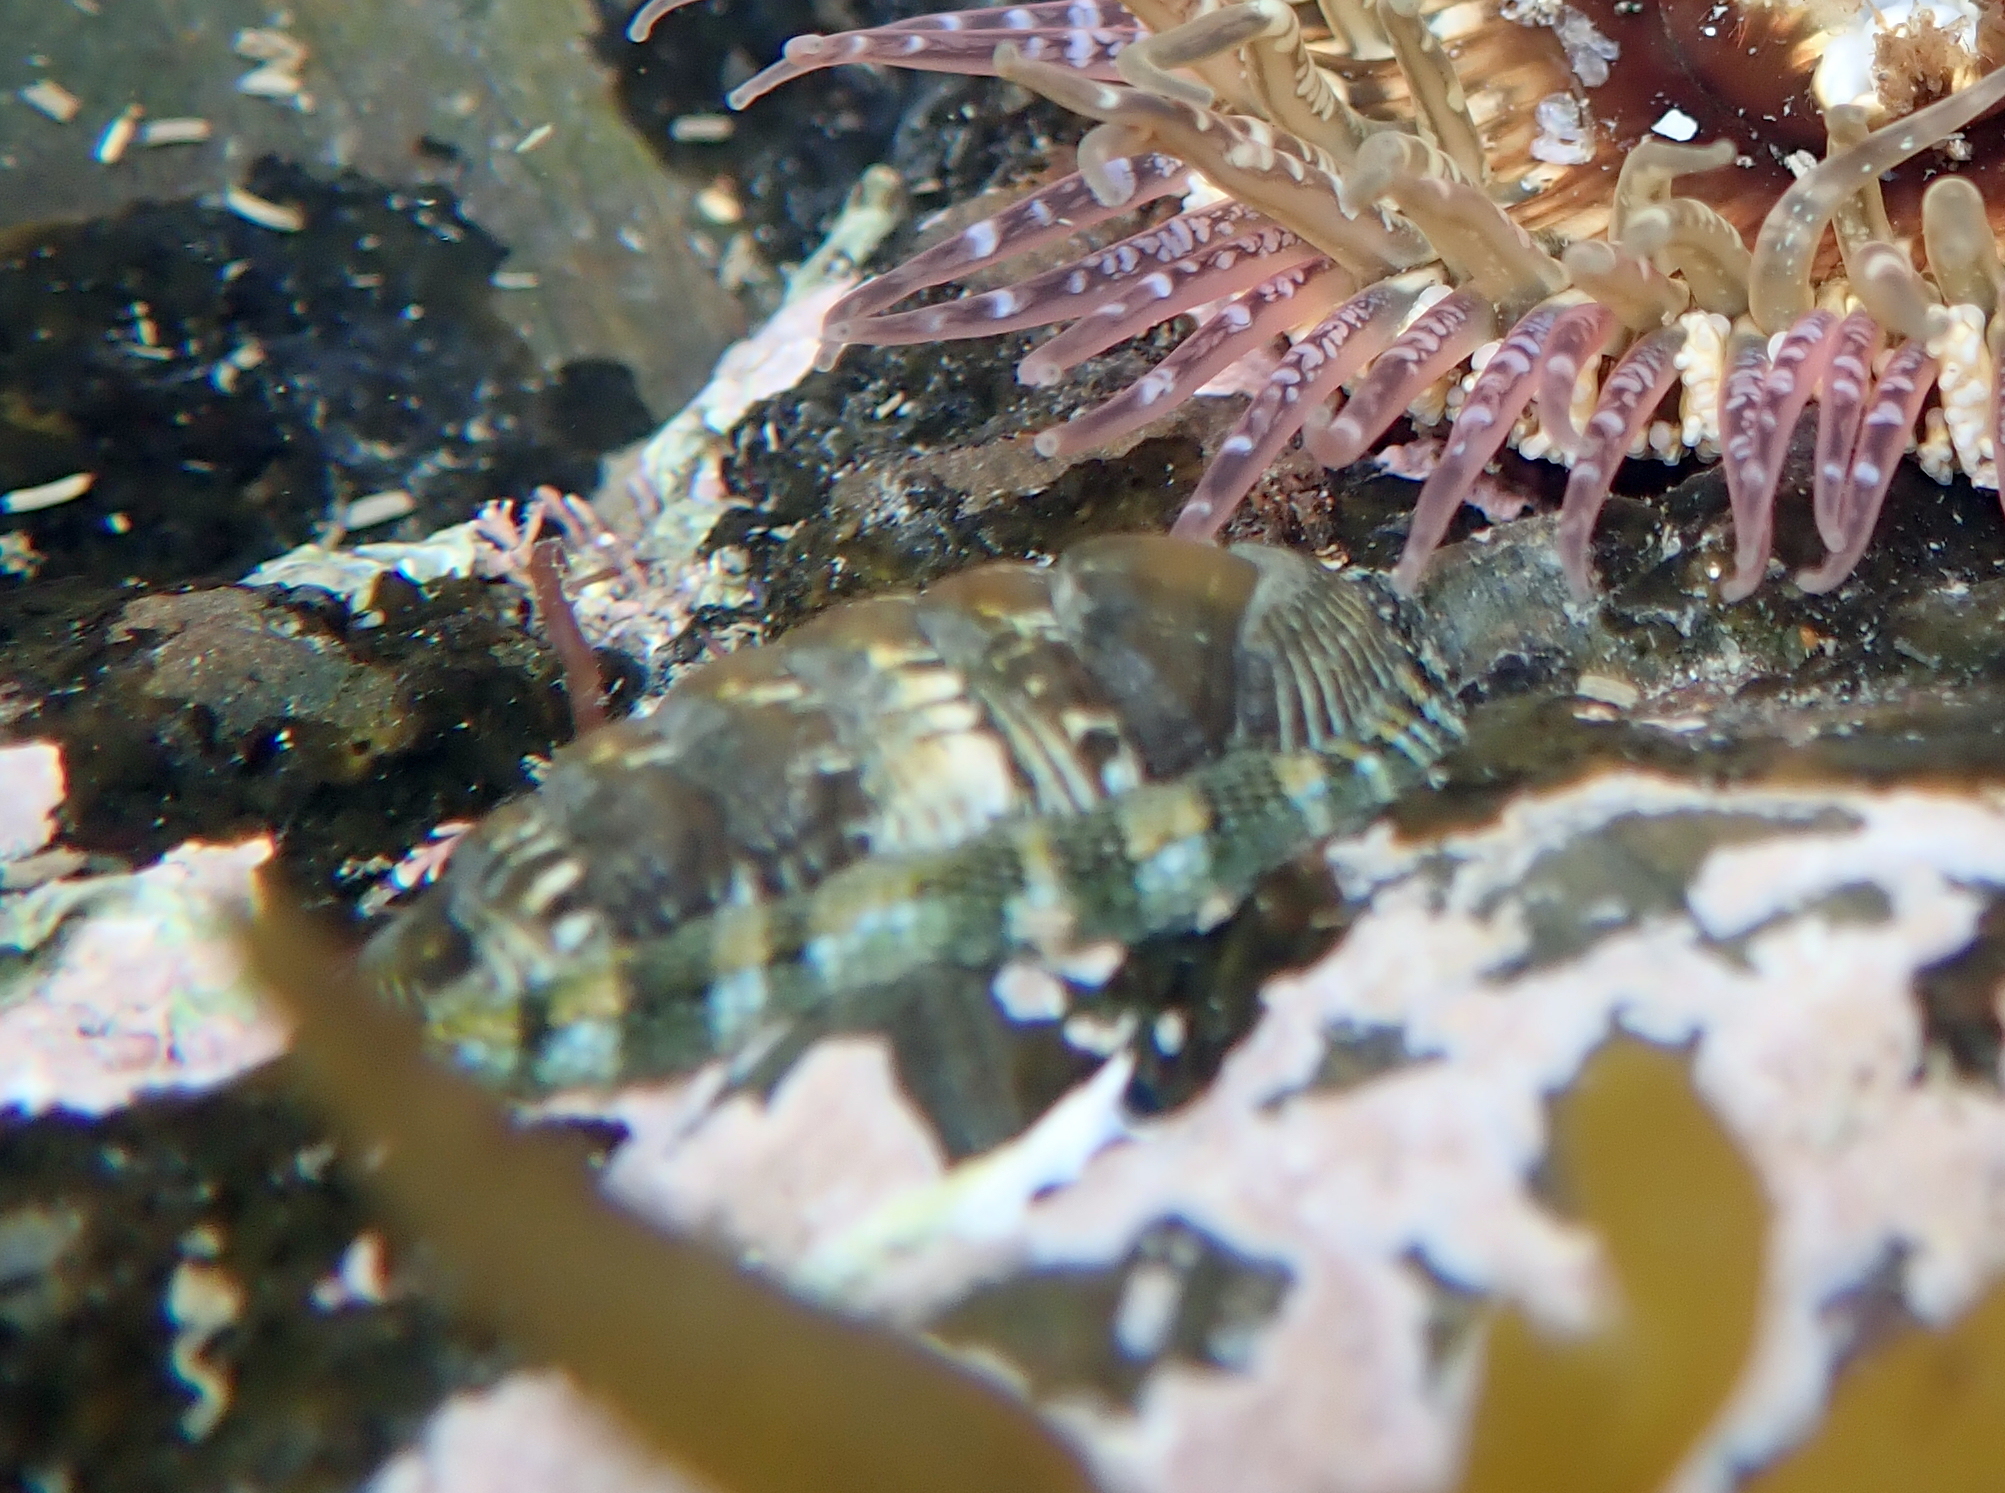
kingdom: Animalia
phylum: Mollusca
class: Polyplacophora
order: Chitonida
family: Chitonidae
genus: Sypharochiton
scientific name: Sypharochiton sinclairi
